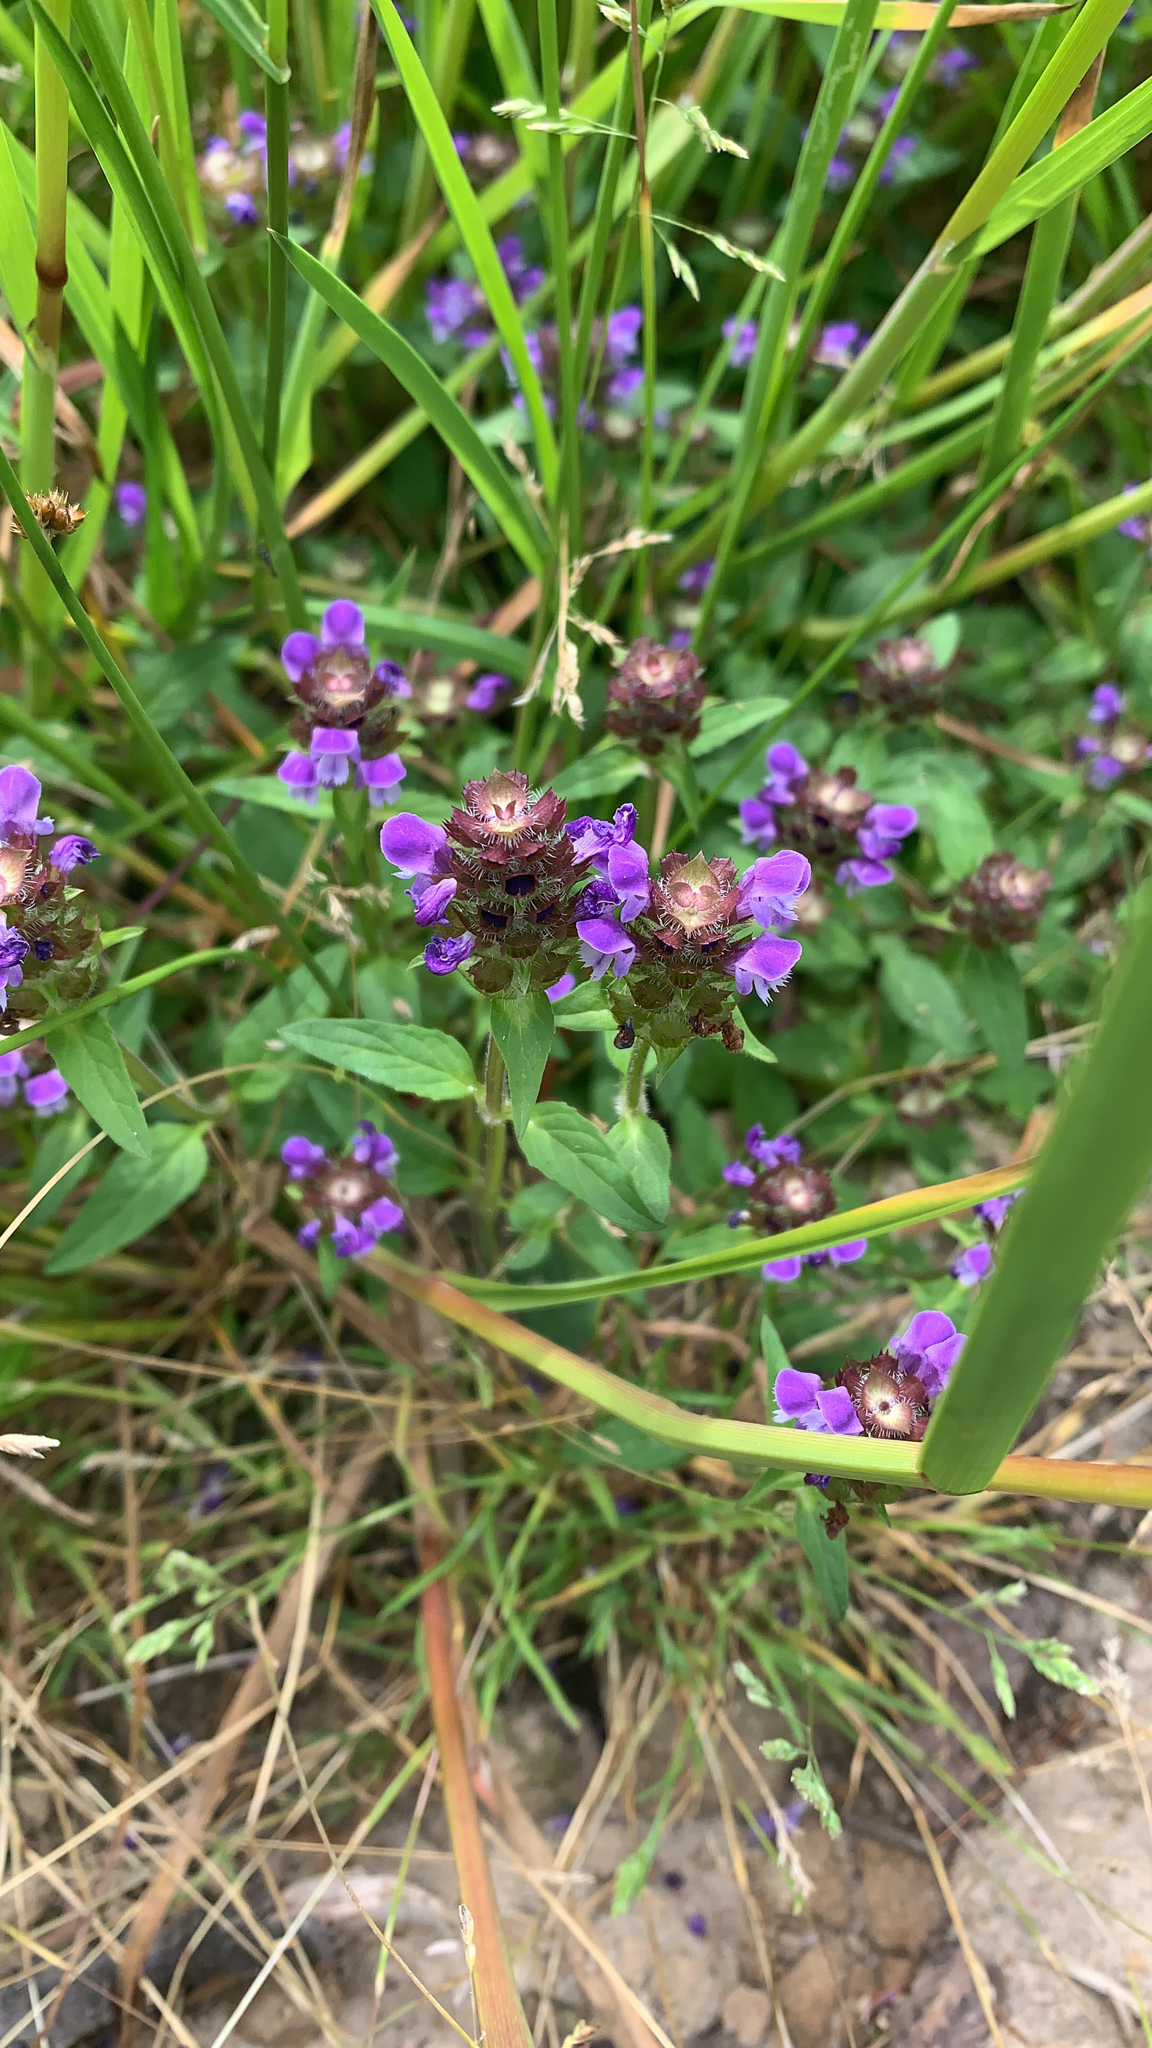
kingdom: Plantae
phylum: Tracheophyta
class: Magnoliopsida
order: Lamiales
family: Lamiaceae
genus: Prunella
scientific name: Prunella vulgaris
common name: Heal-all
